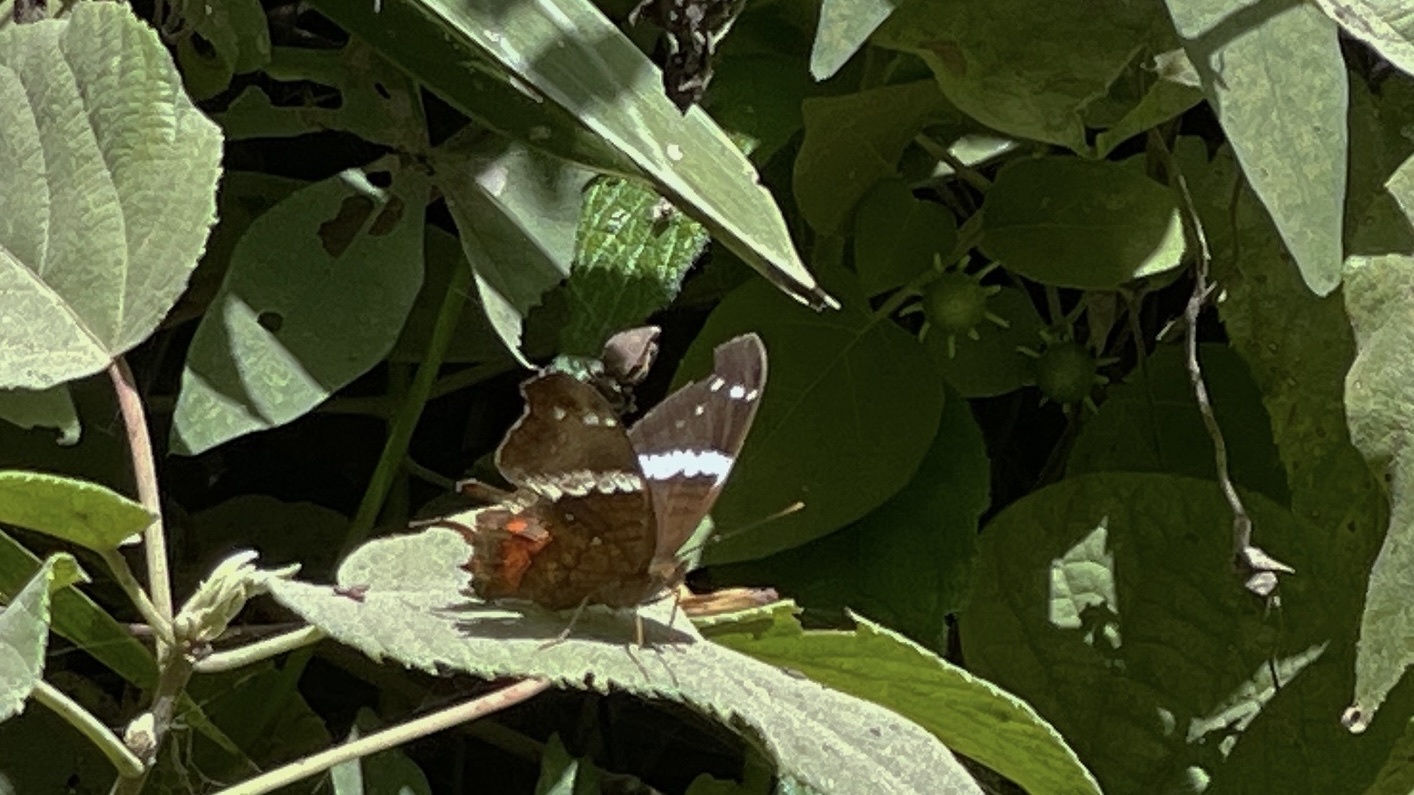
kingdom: Animalia
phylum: Arthropoda
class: Insecta
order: Lepidoptera
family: Nymphalidae
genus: Anartia
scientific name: Anartia fatima
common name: Banded peacock
